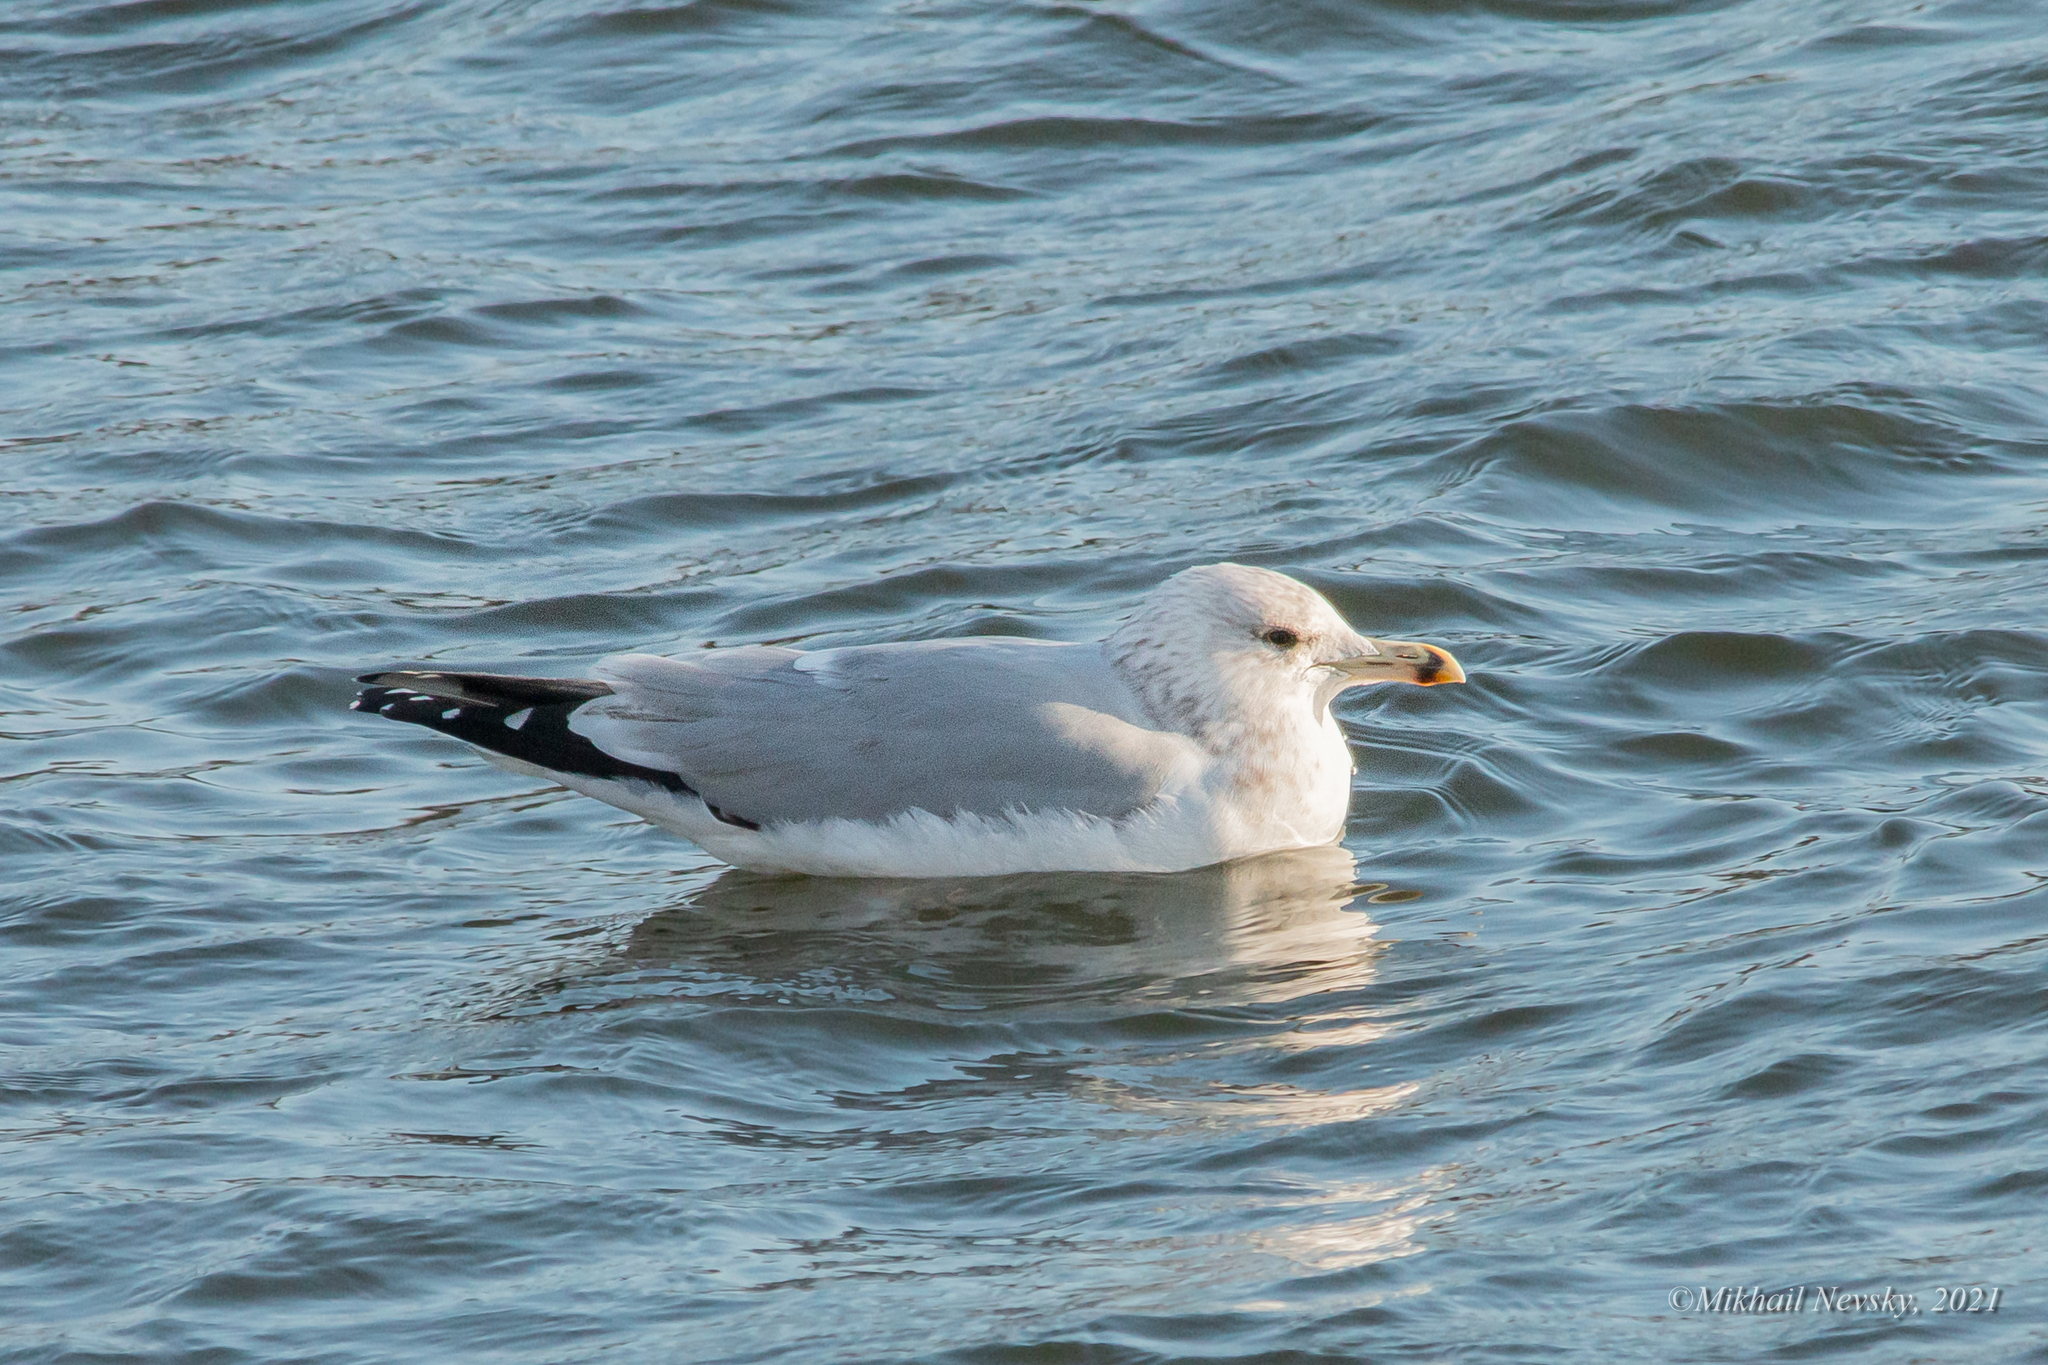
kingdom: Animalia
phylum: Chordata
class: Aves
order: Charadriiformes
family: Laridae
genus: Larus
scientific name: Larus cachinnans
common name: Caspian gull
